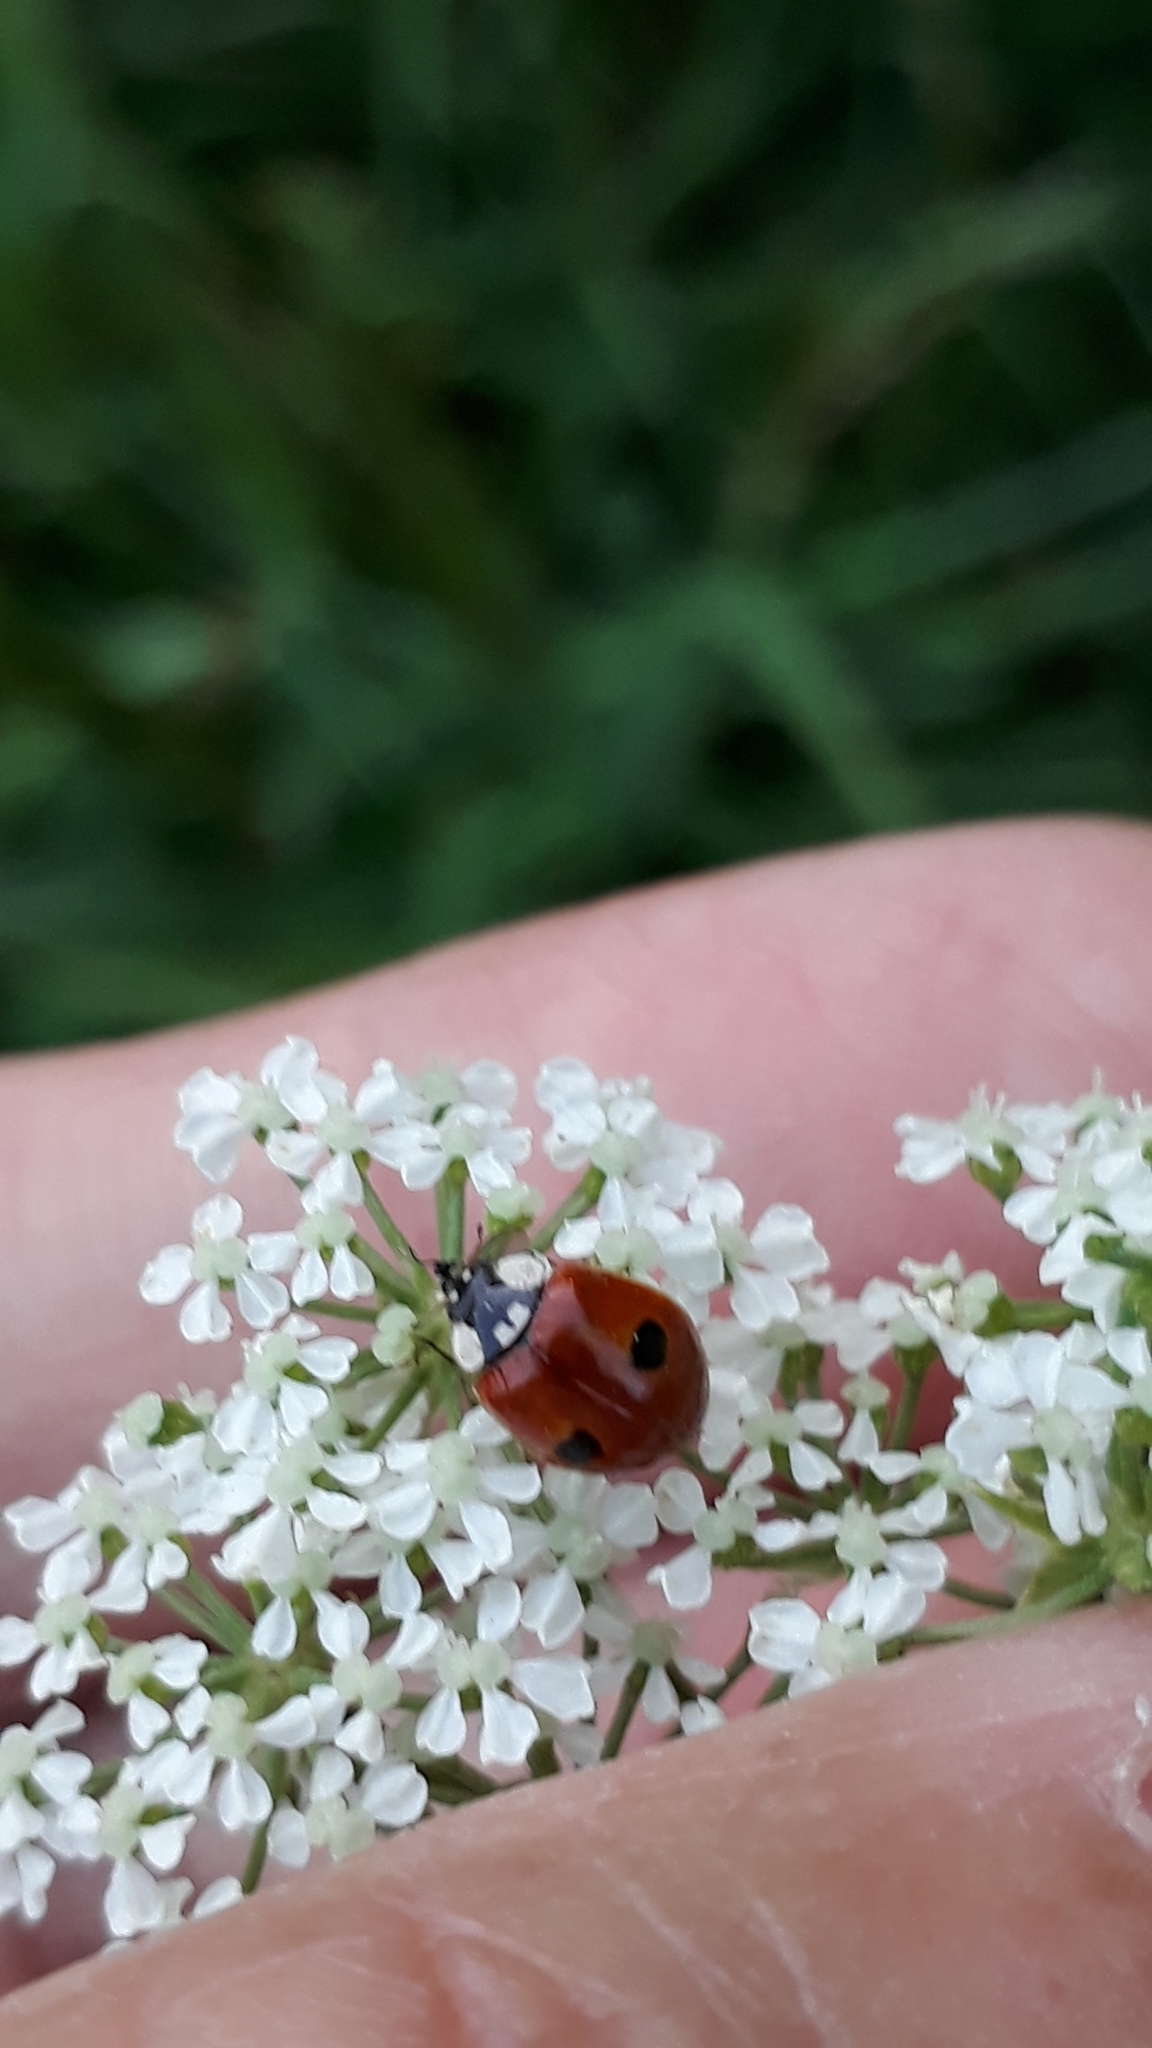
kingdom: Animalia
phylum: Arthropoda
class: Insecta
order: Coleoptera
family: Coccinellidae
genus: Adalia
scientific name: Adalia bipunctata
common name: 2-spot ladybird
